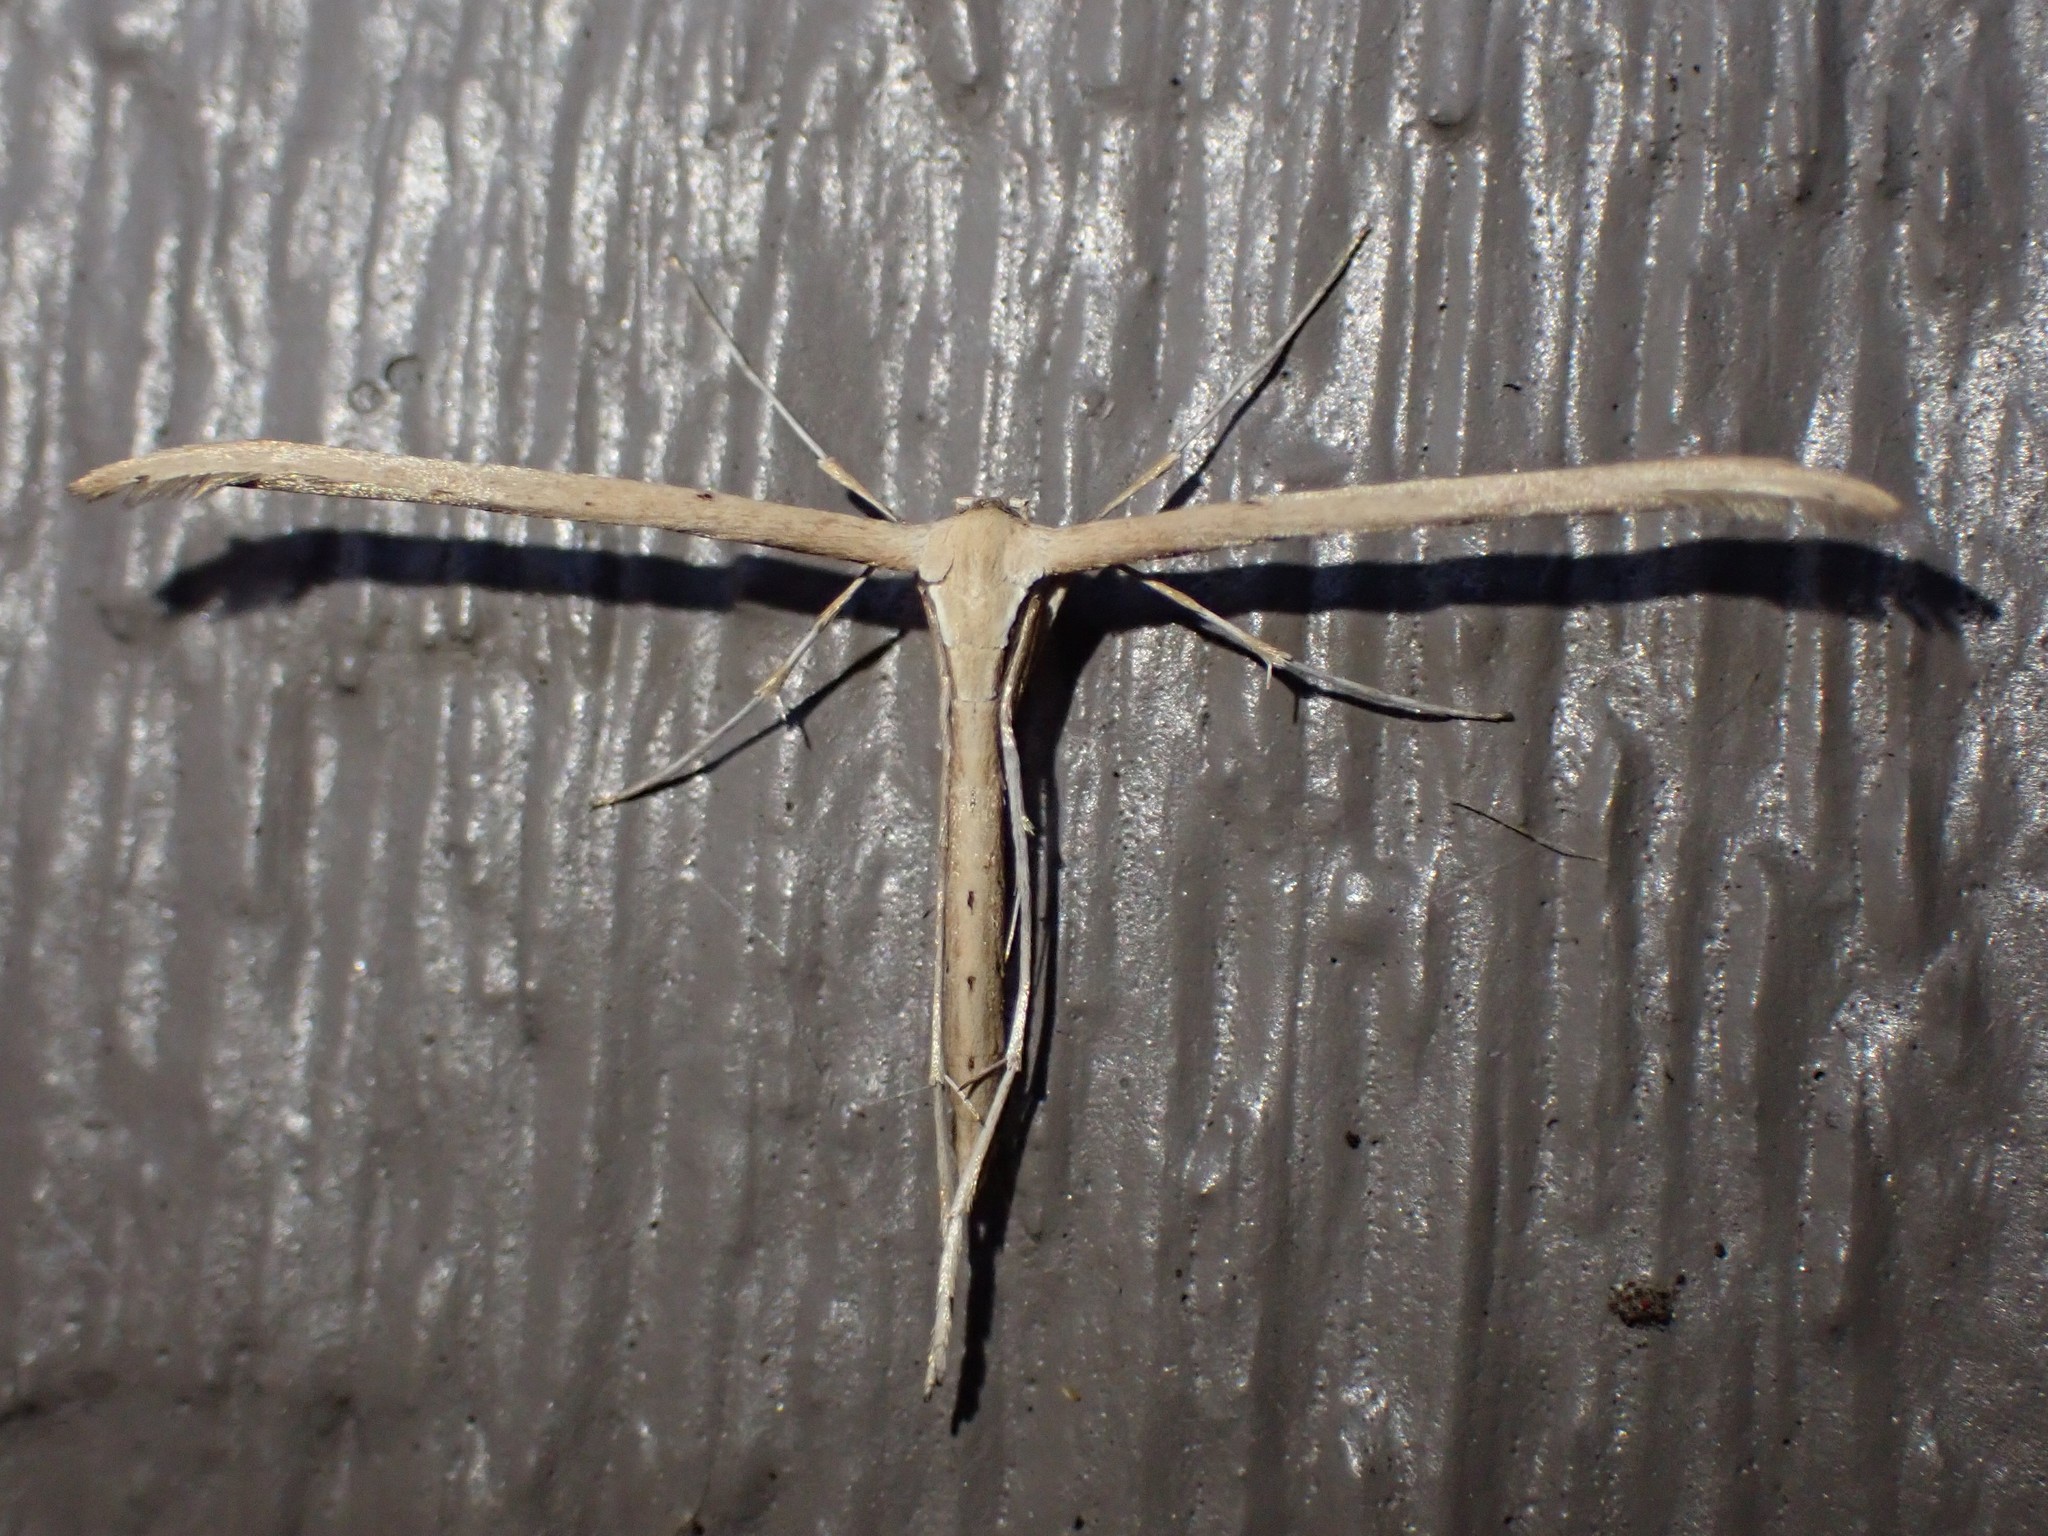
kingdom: Animalia
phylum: Arthropoda
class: Insecta
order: Lepidoptera
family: Pterophoridae
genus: Emmelina
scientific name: Emmelina monodactyla
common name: Common plume
